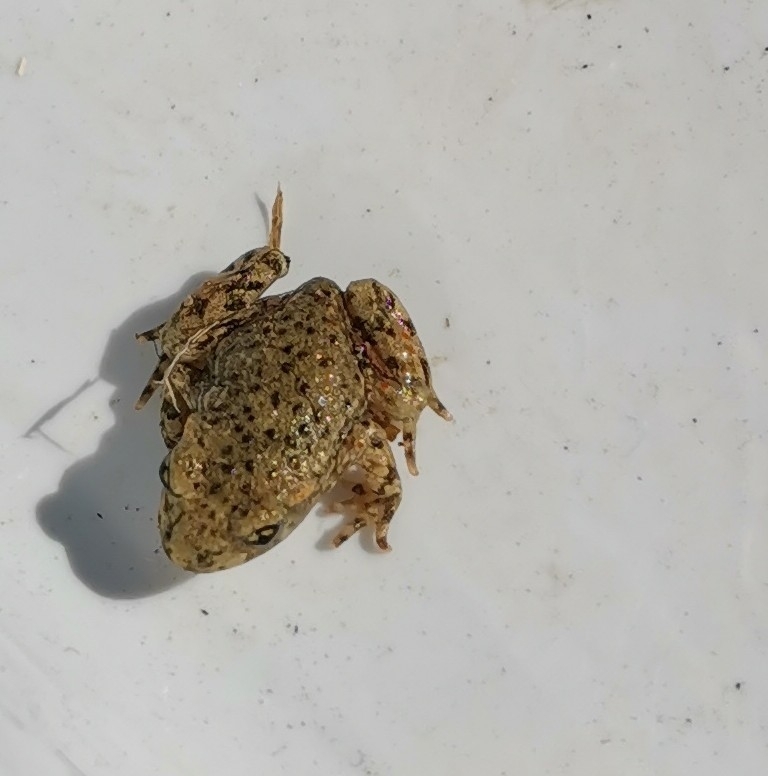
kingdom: Animalia
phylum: Chordata
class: Amphibia
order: Anura
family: Alytidae
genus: Alytes
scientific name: Alytes obstetricans
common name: Midwife toad
